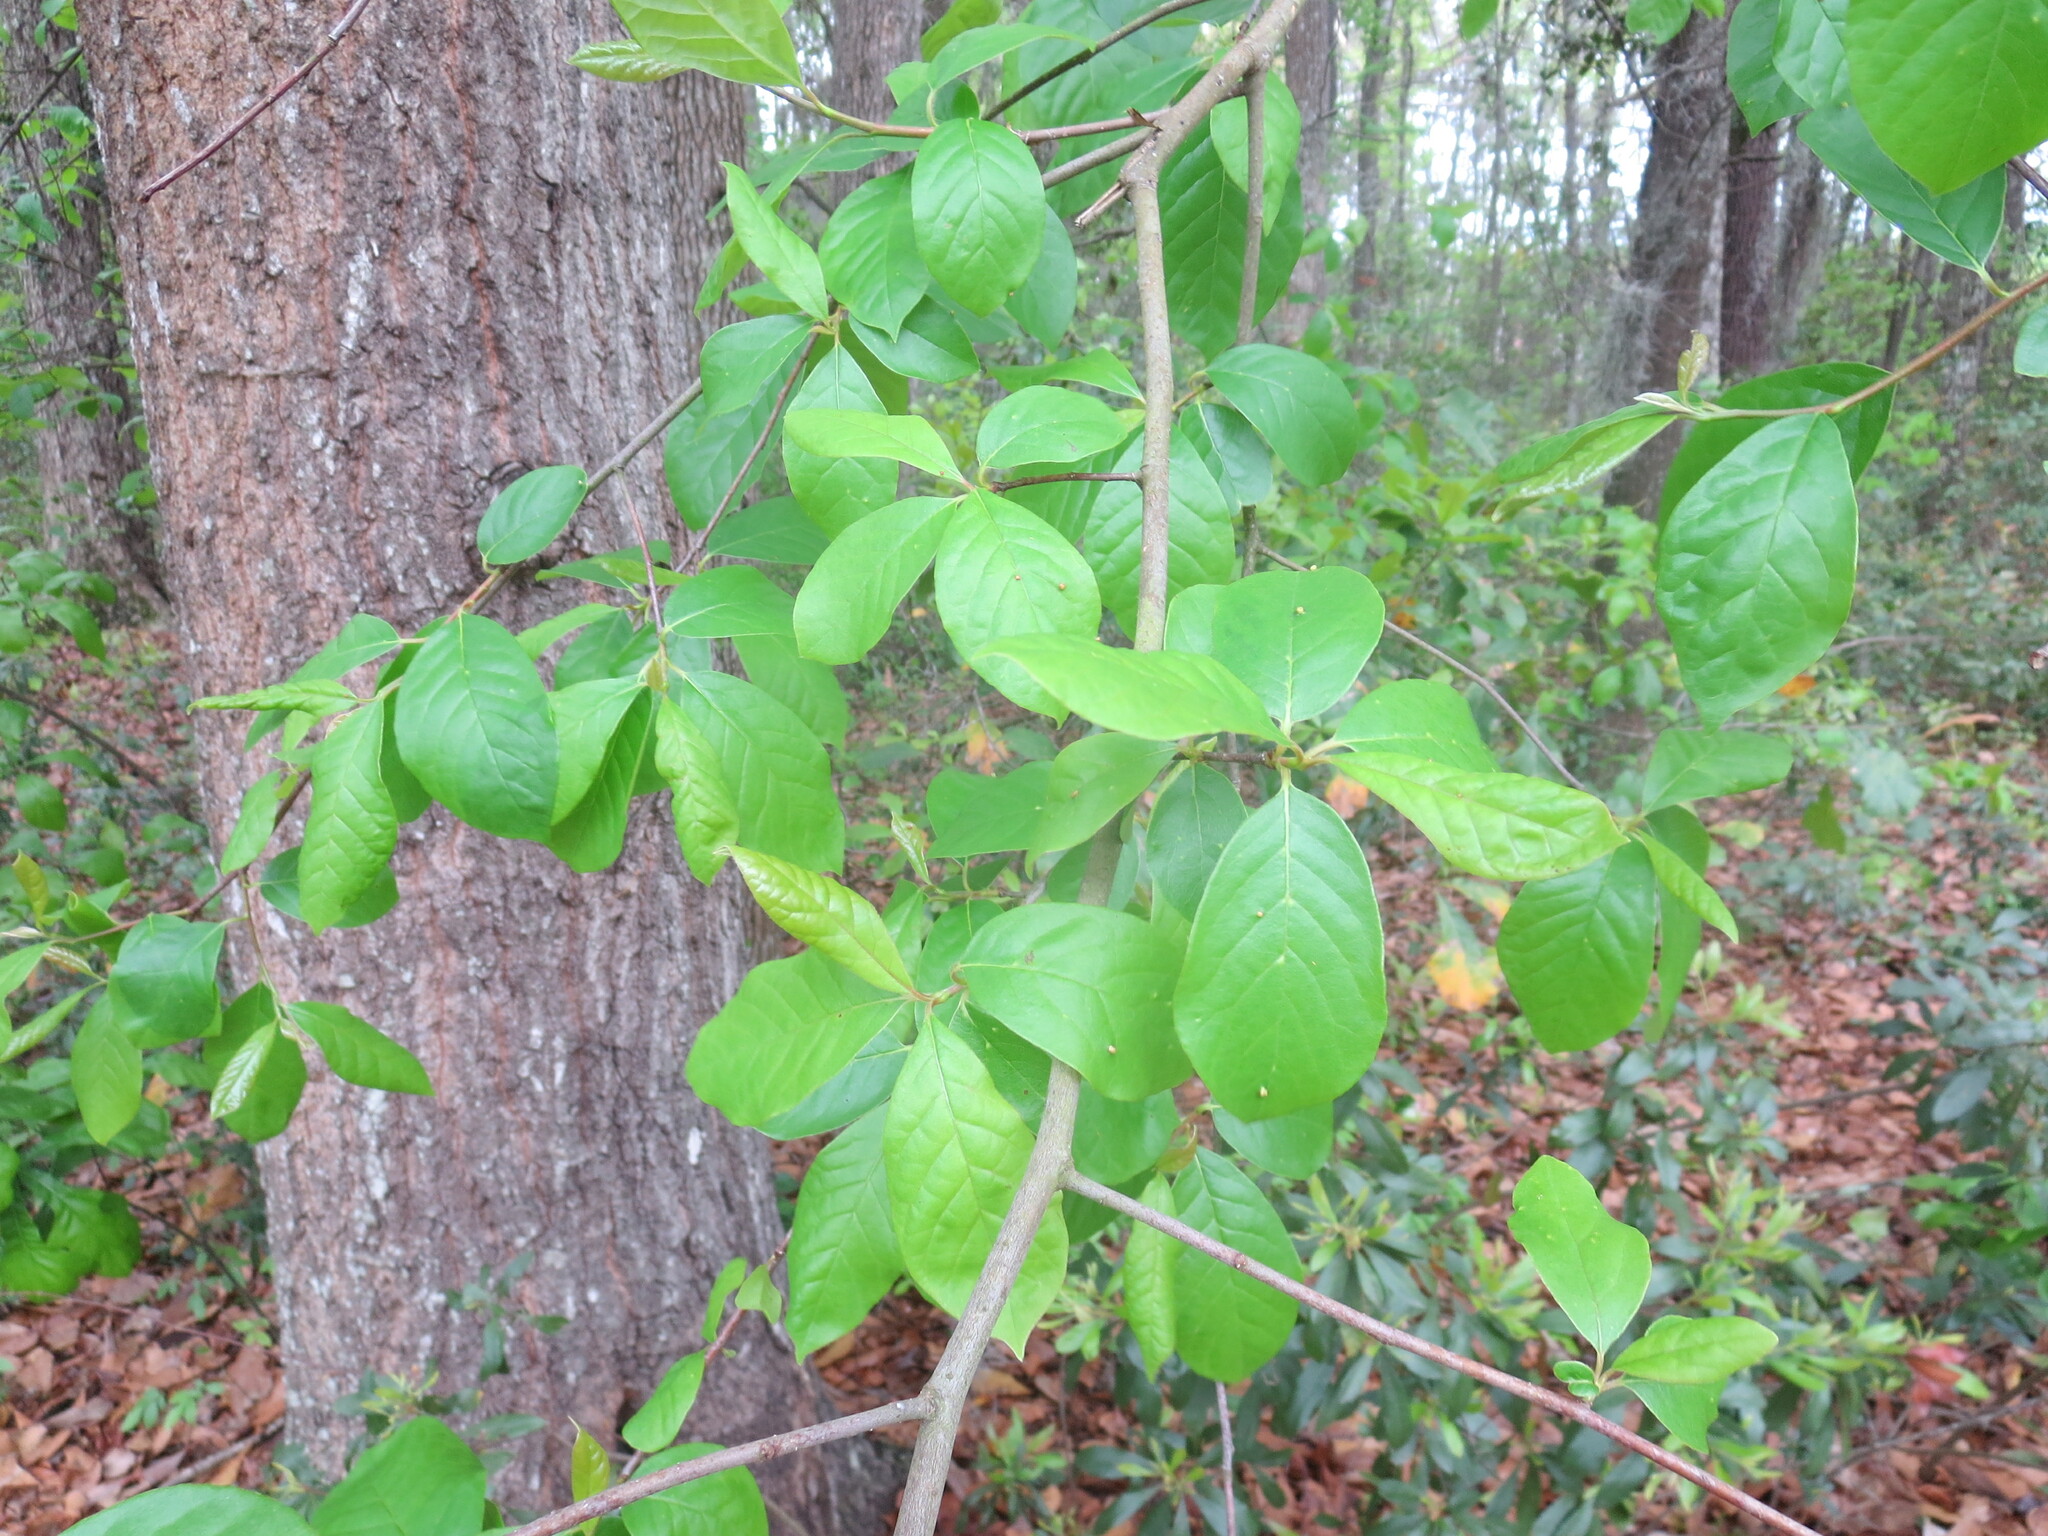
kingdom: Animalia
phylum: Arthropoda
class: Arachnida
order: Trombidiformes
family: Eriophyidae
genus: Aceria
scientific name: Aceria
